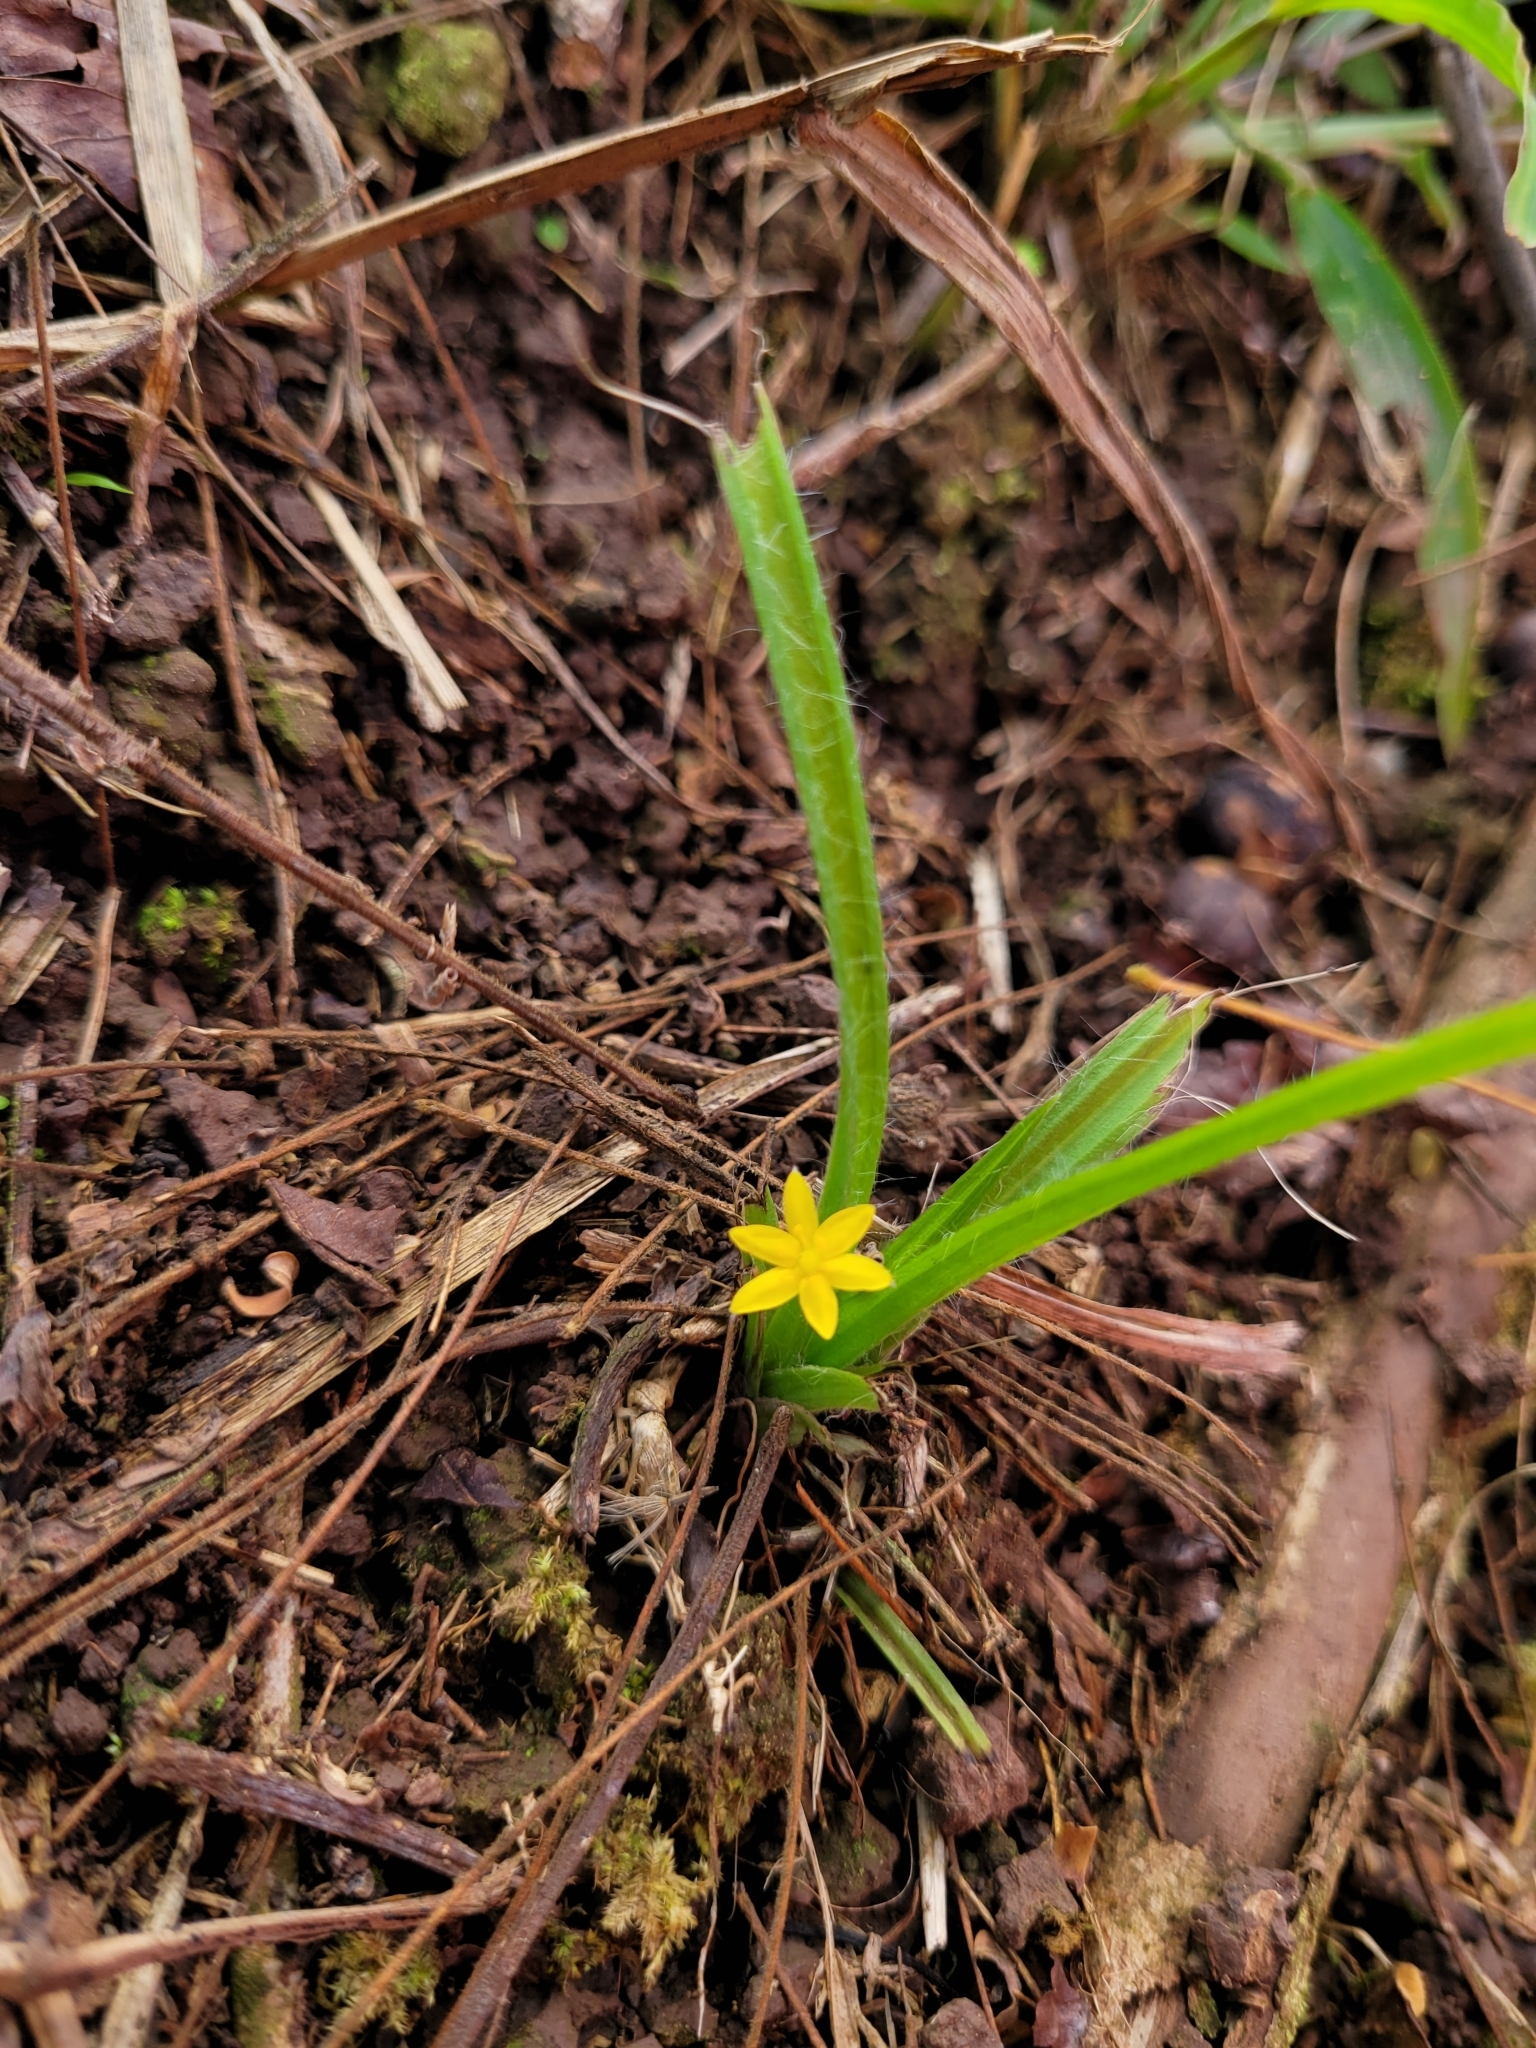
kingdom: Plantae
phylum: Tracheophyta
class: Liliopsida
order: Asparagales
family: Hypoxidaceae
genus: Hypoxis
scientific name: Hypoxis decumbens
